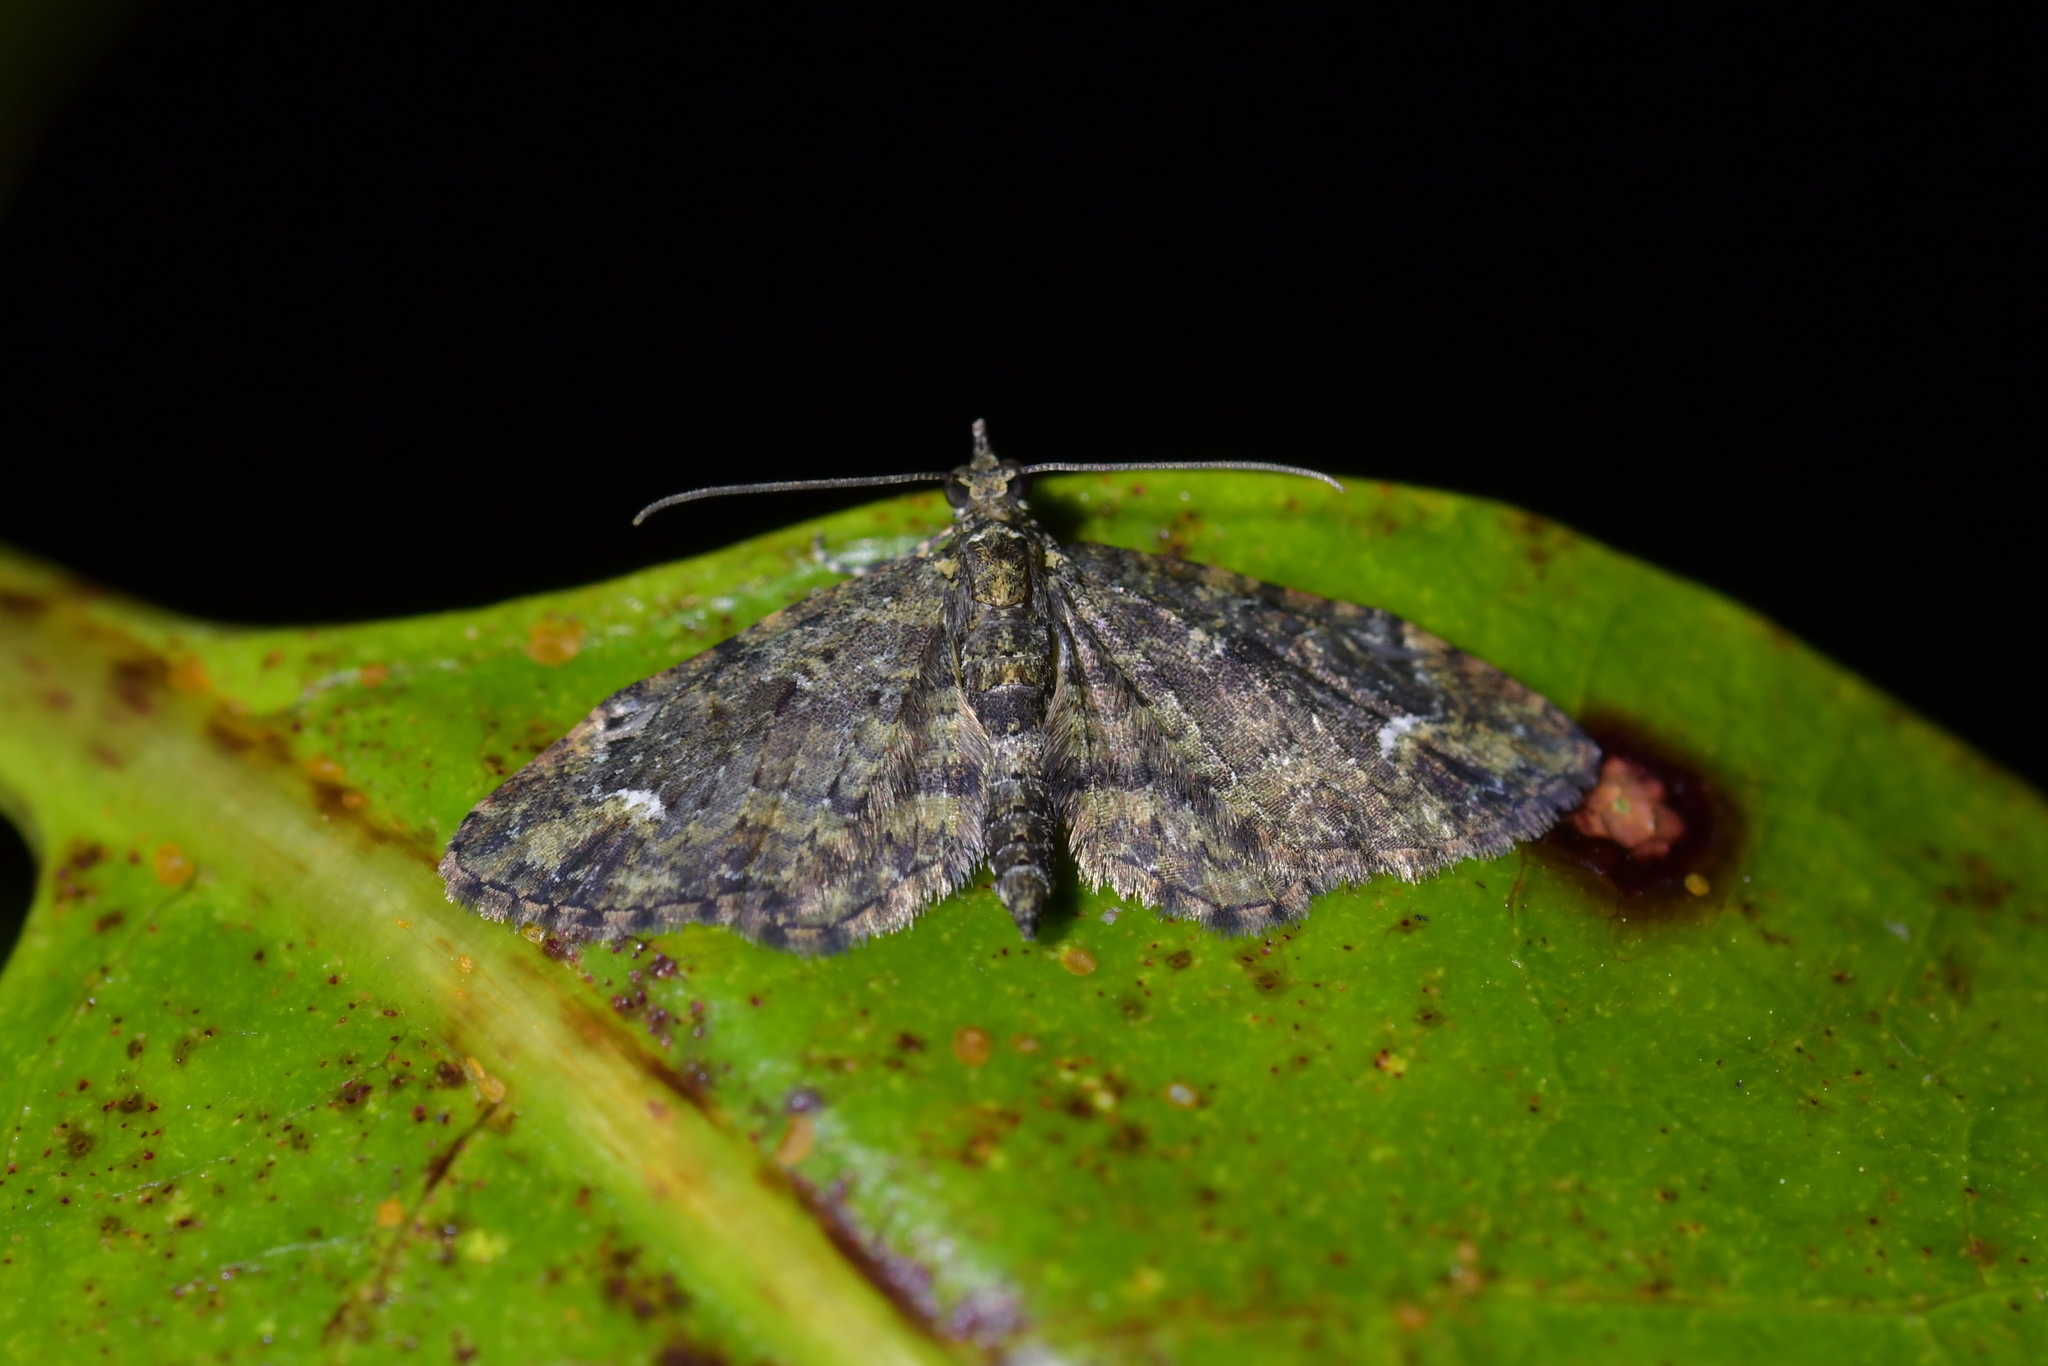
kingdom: Animalia
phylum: Arthropoda
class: Insecta
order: Lepidoptera
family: Geometridae
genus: Pasiphilodes
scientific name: Pasiphilodes testulata
